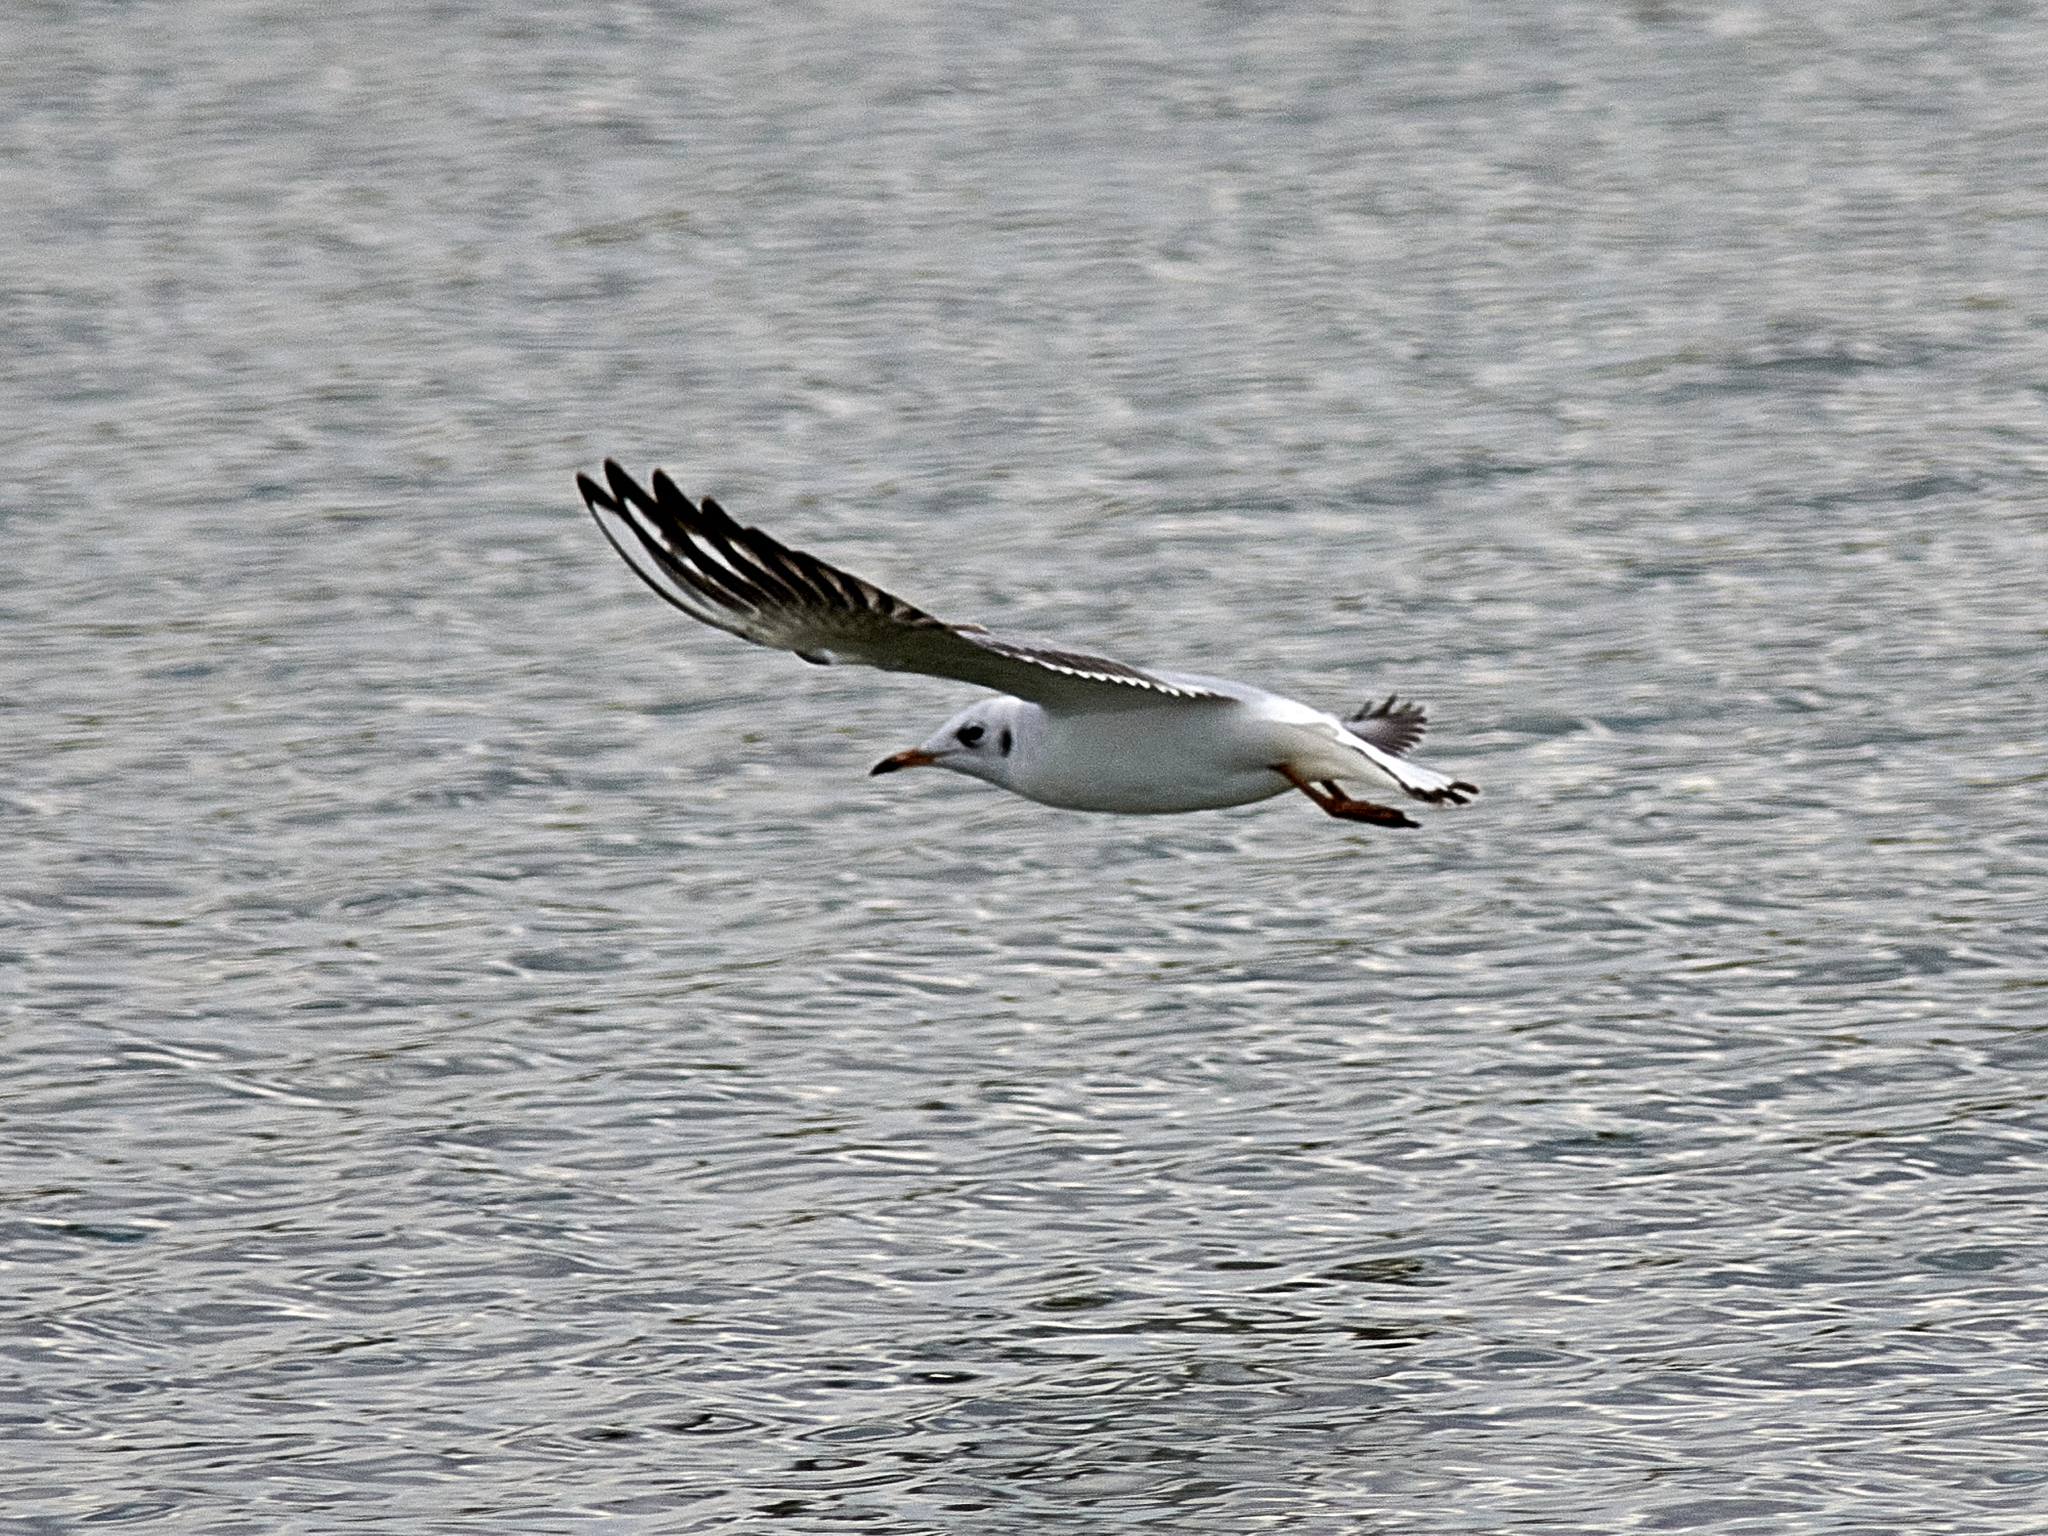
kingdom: Animalia
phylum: Chordata
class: Aves
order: Charadriiformes
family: Laridae
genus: Chroicocephalus
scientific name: Chroicocephalus ridibundus
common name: Black-headed gull
